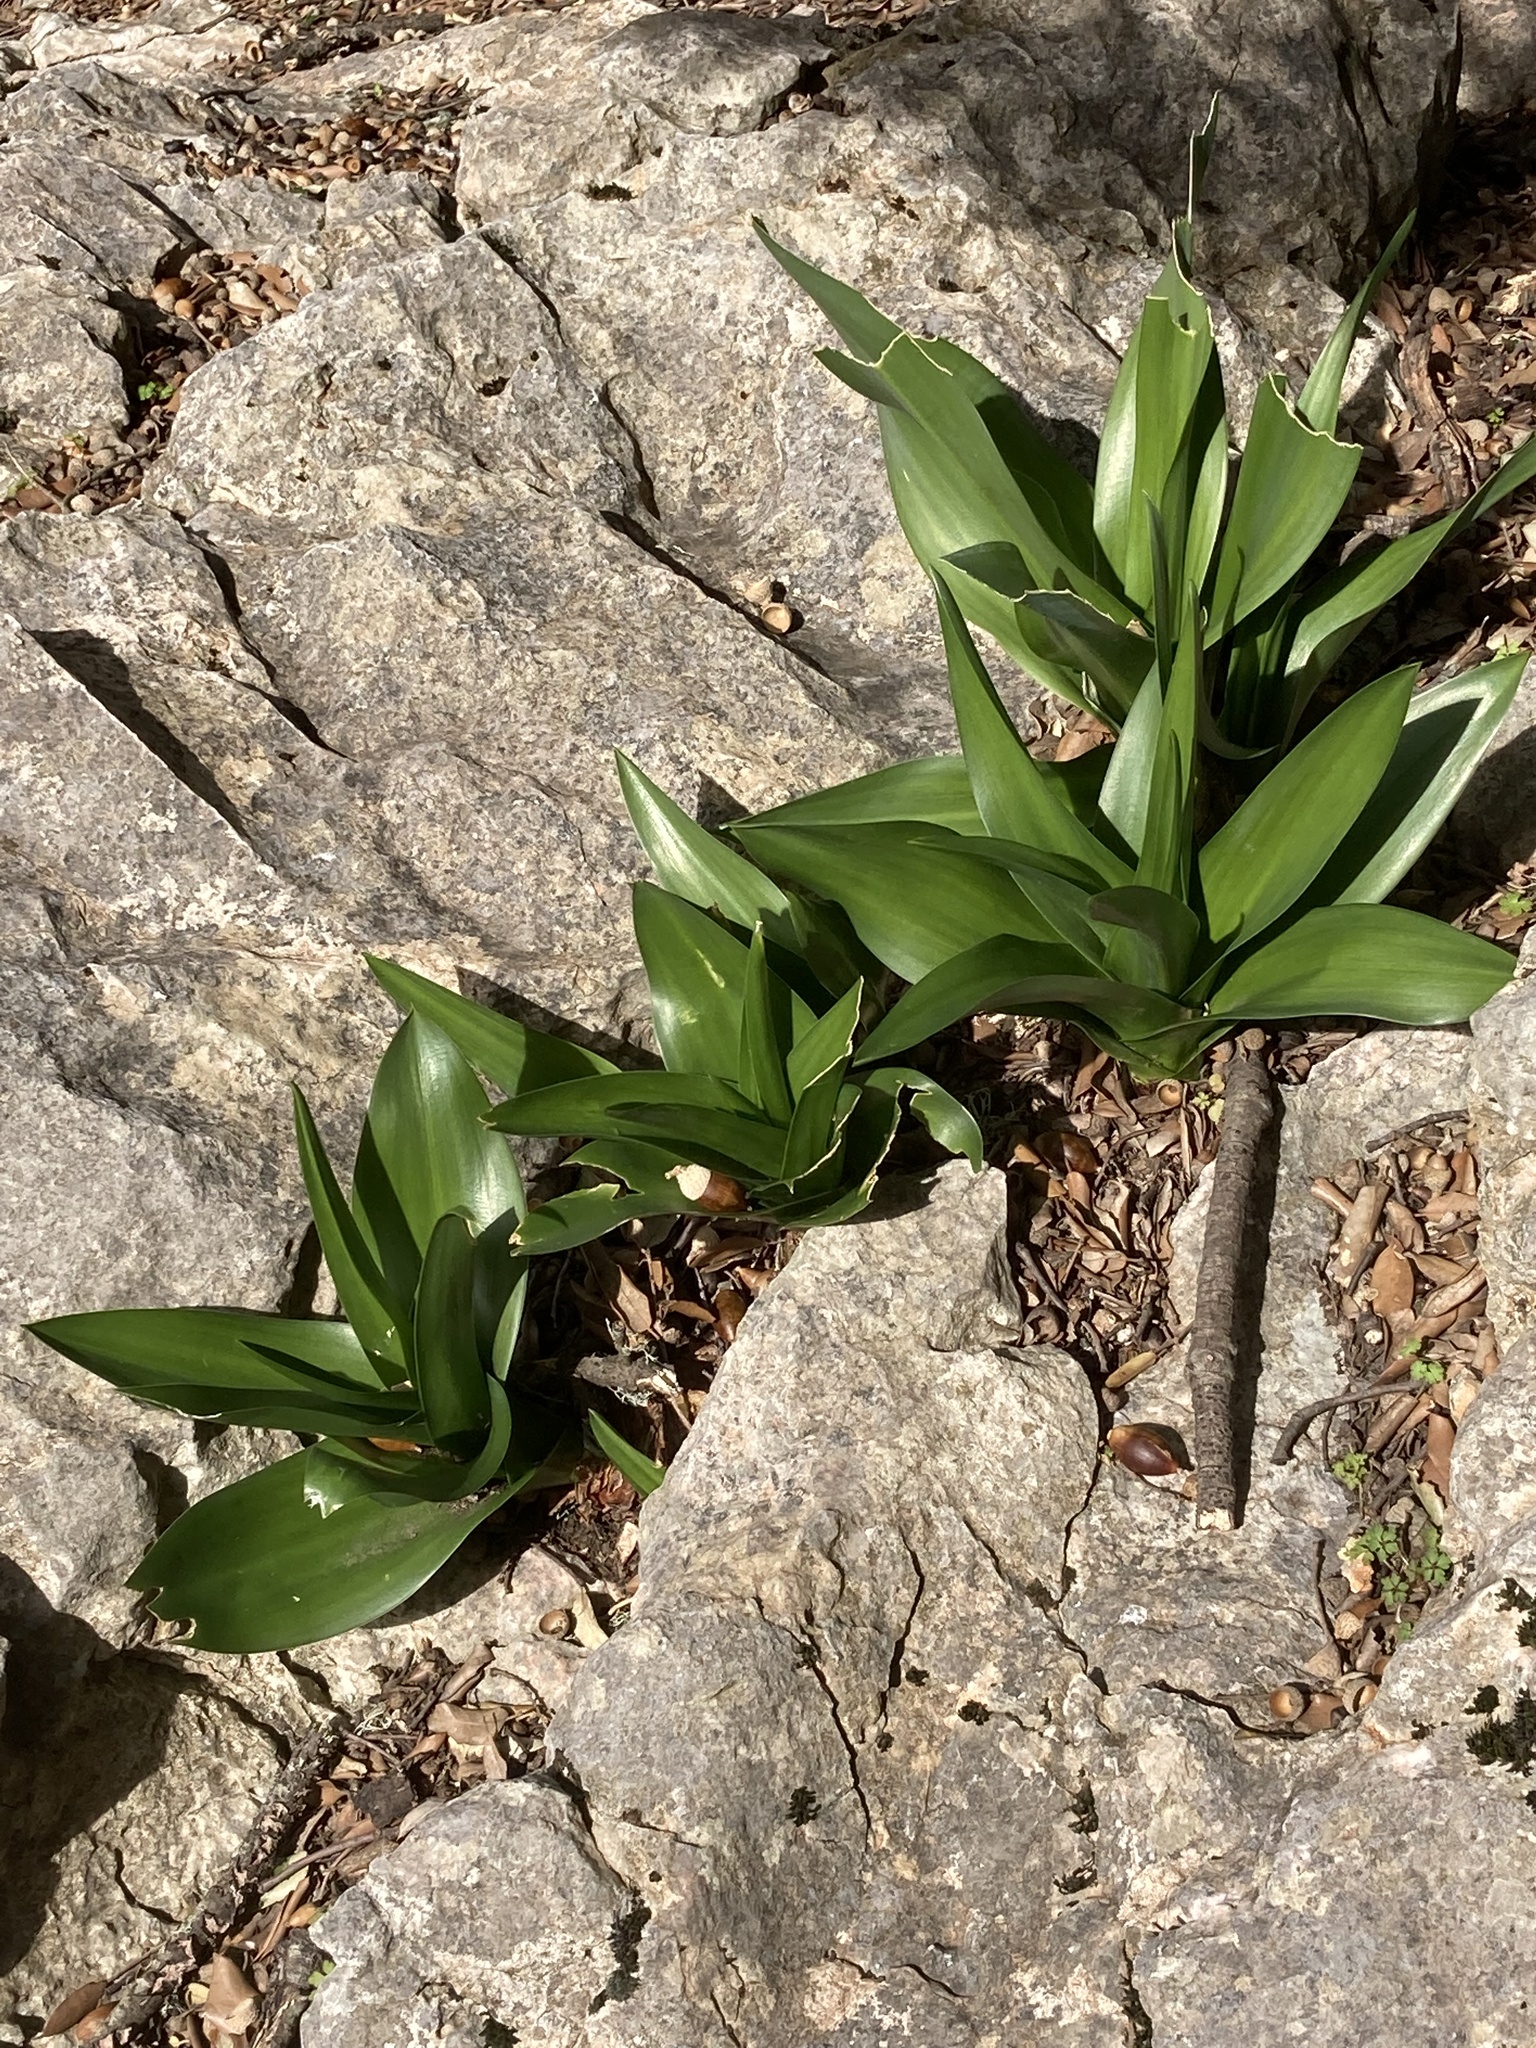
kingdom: Plantae
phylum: Tracheophyta
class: Liliopsida
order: Asparagales
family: Asparagaceae
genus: Drimia
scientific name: Drimia maritima
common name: Maritime squill
